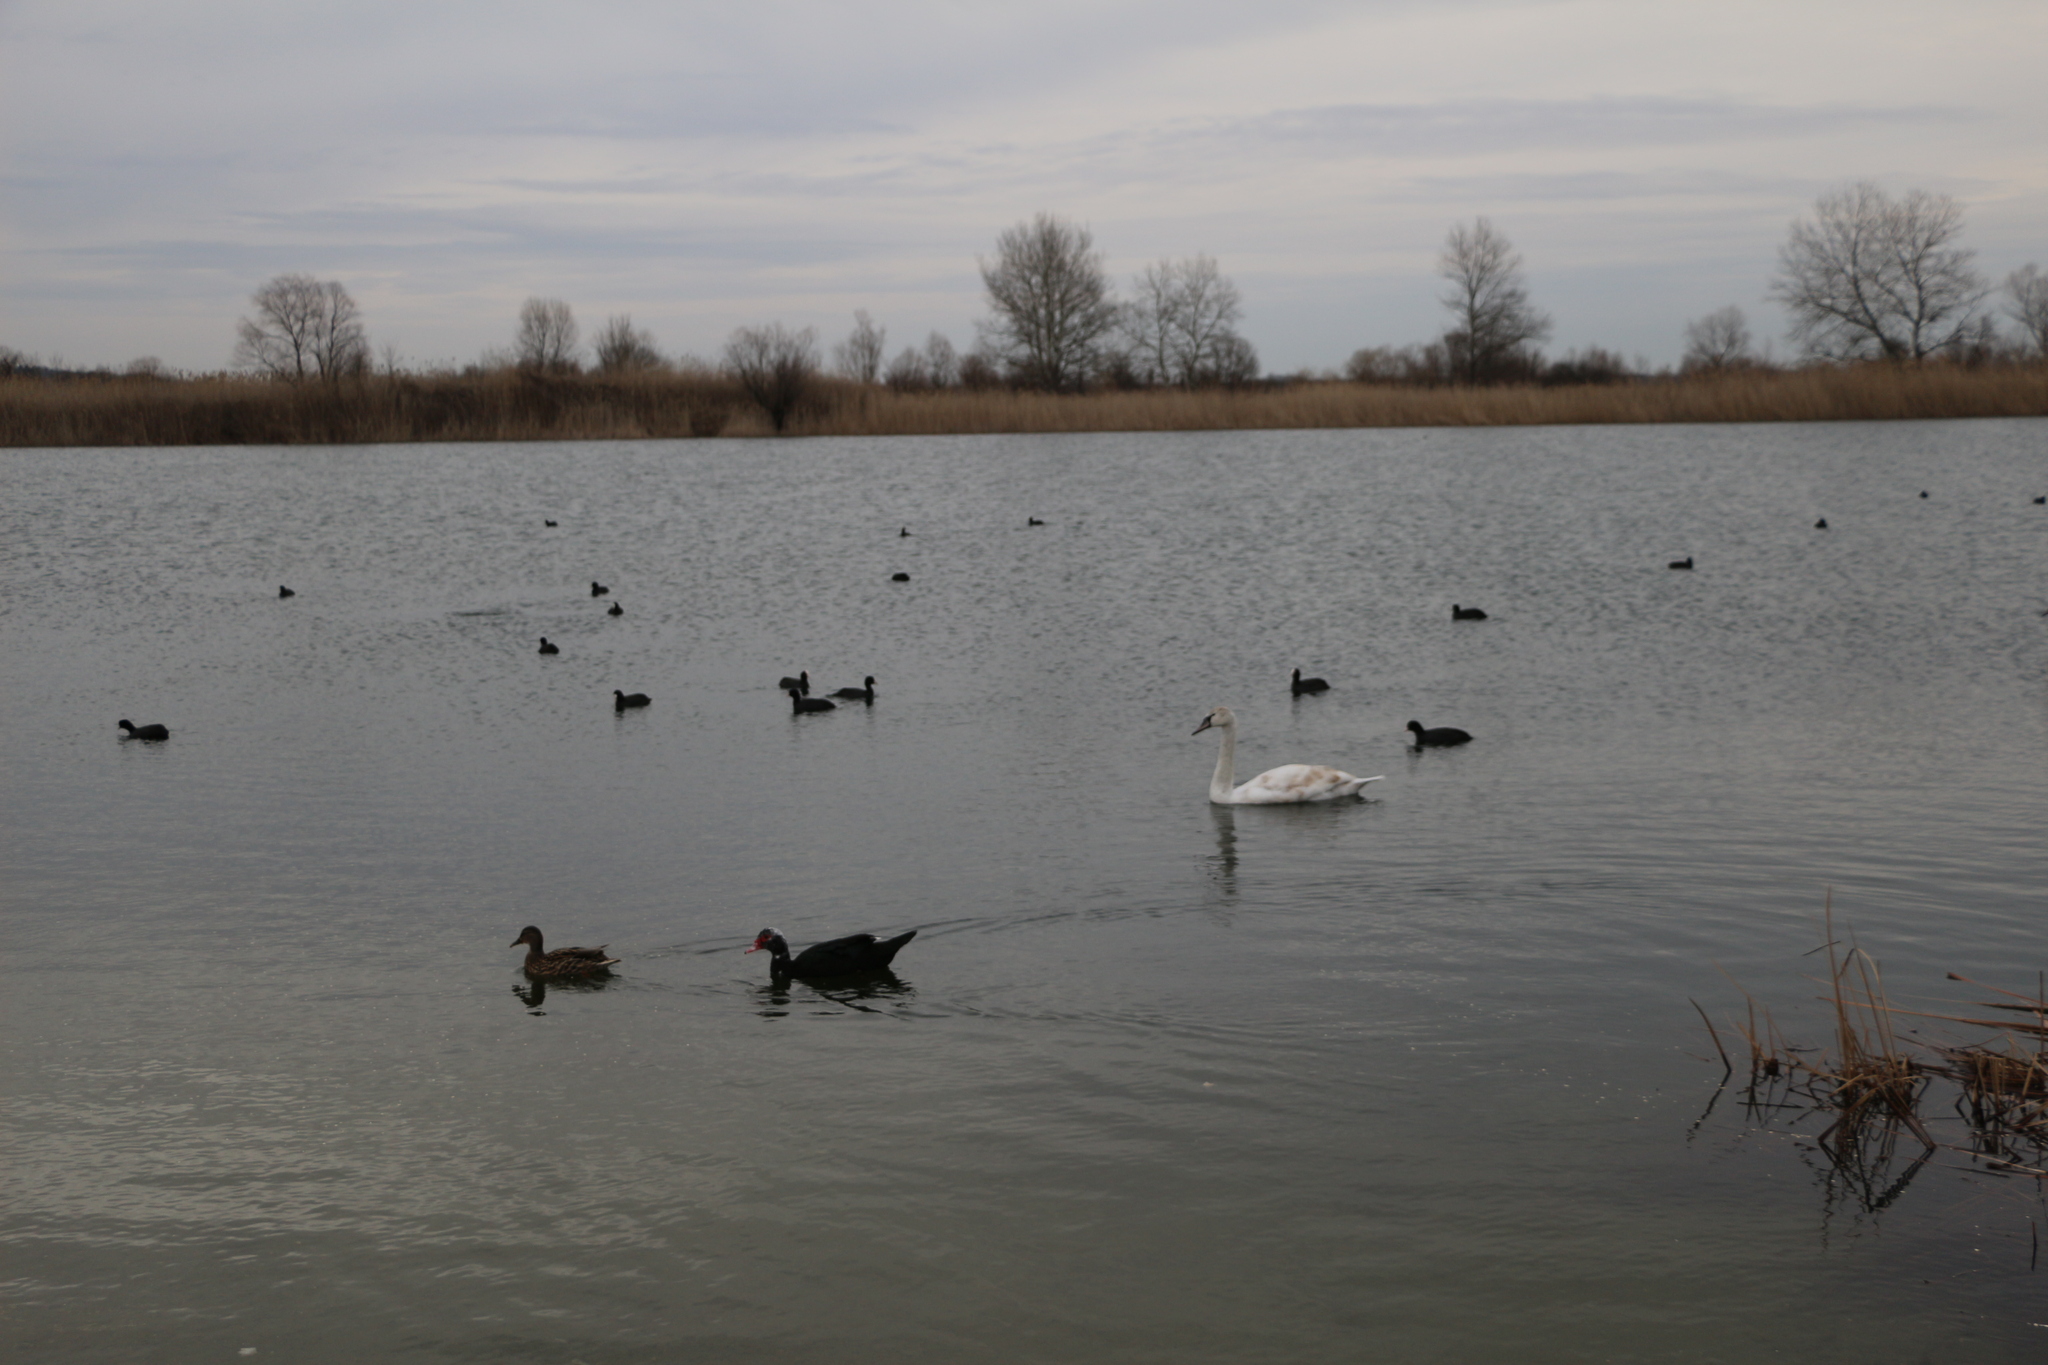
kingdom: Animalia
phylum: Chordata
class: Aves
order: Anseriformes
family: Anatidae
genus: Cygnus
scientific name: Cygnus olor
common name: Mute swan
